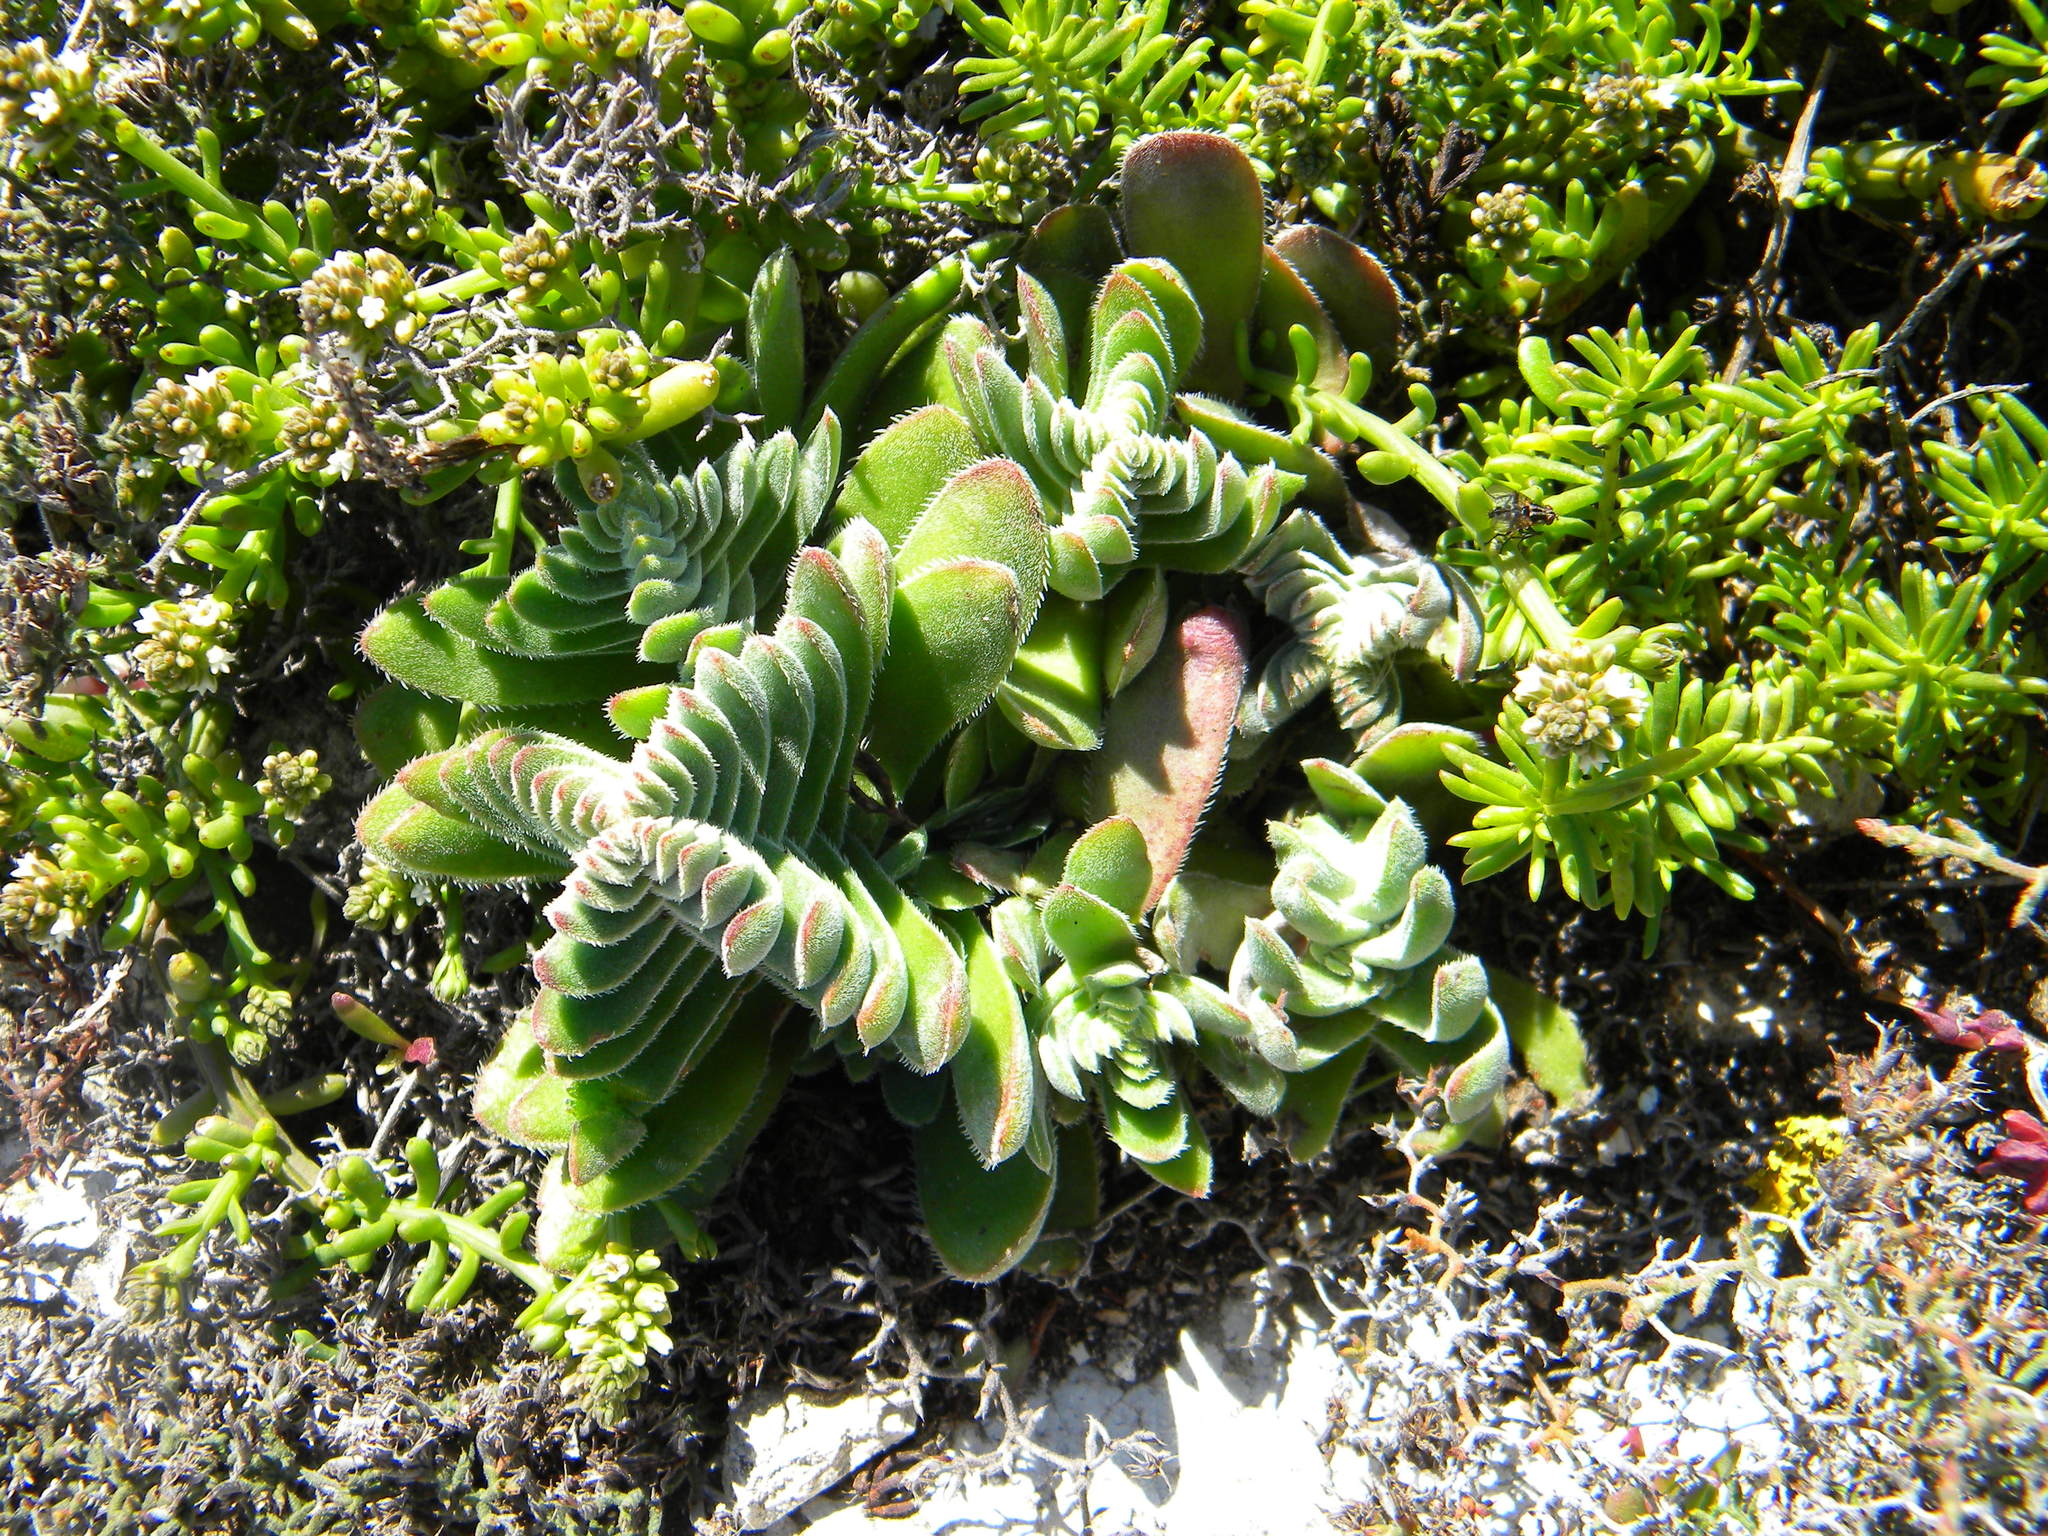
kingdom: Plantae
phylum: Tracheophyta
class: Magnoliopsida
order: Saxifragales
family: Crassulaceae
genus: Crassula
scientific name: Crassula tomentosa
